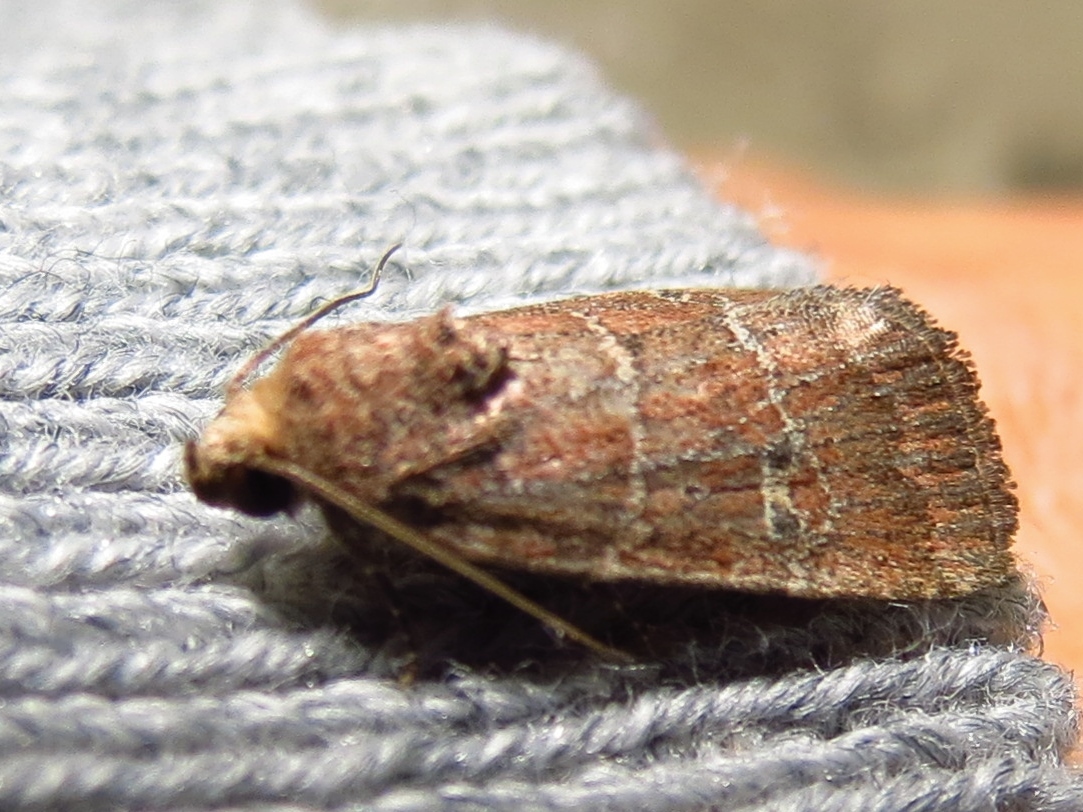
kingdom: Animalia
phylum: Arthropoda
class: Insecta
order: Lepidoptera
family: Noctuidae
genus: Elaphria
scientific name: Elaphria grata
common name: Grateful midget moth
